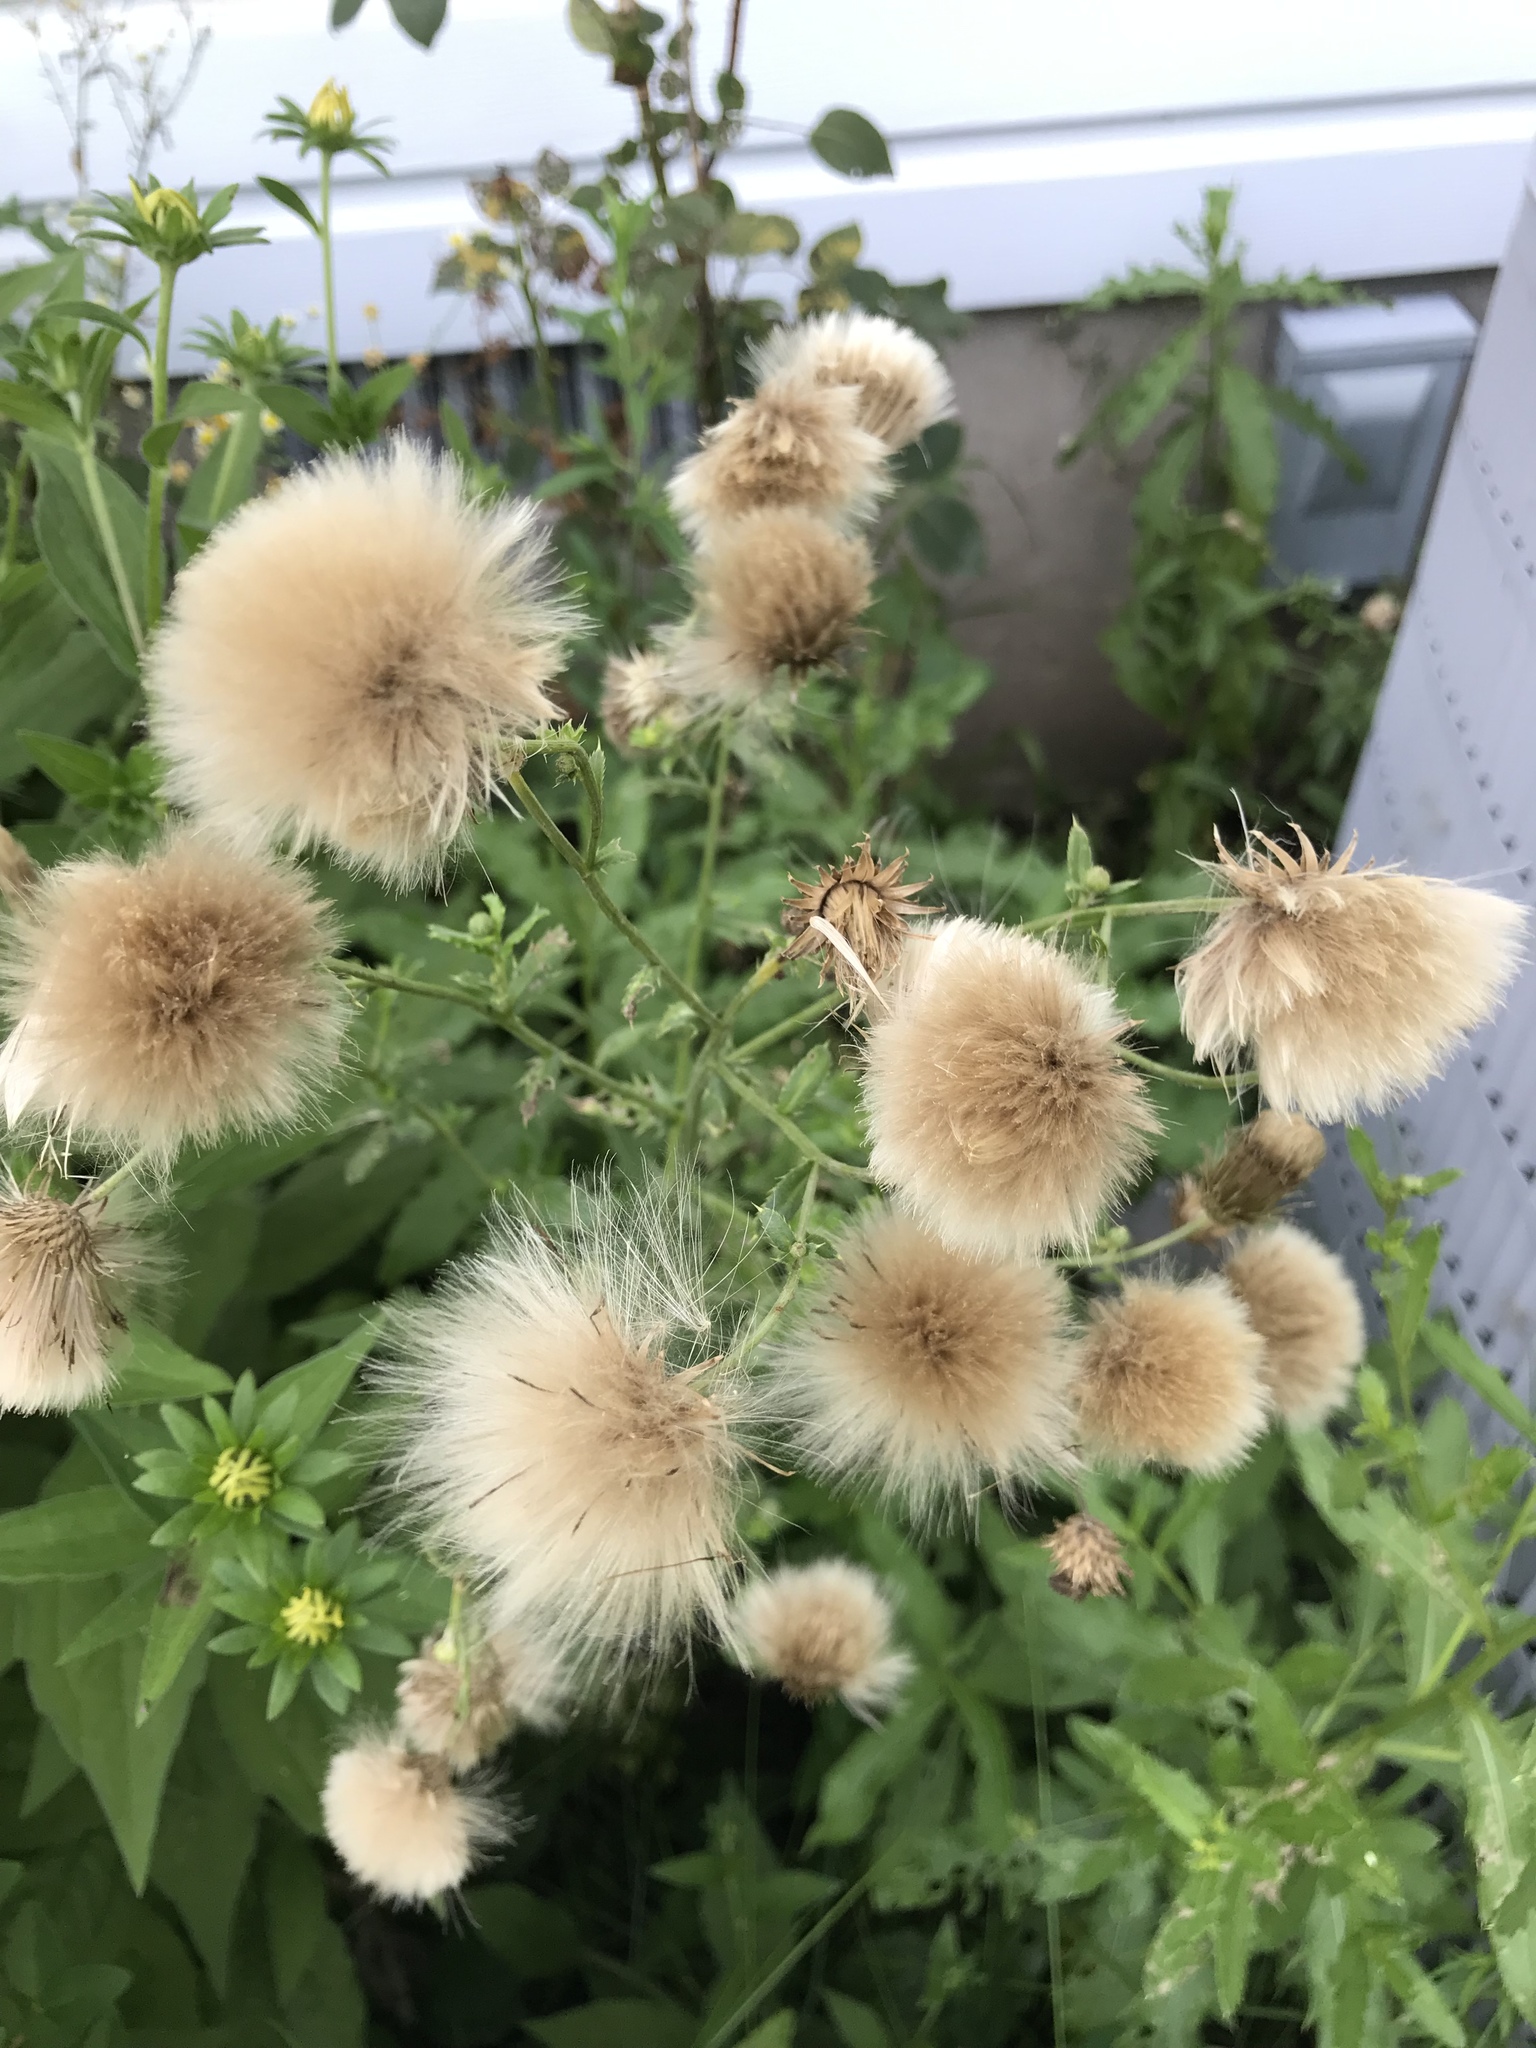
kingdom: Plantae
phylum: Tracheophyta
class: Magnoliopsida
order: Asterales
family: Asteraceae
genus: Cirsium
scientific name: Cirsium arvense
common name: Creeping thistle
